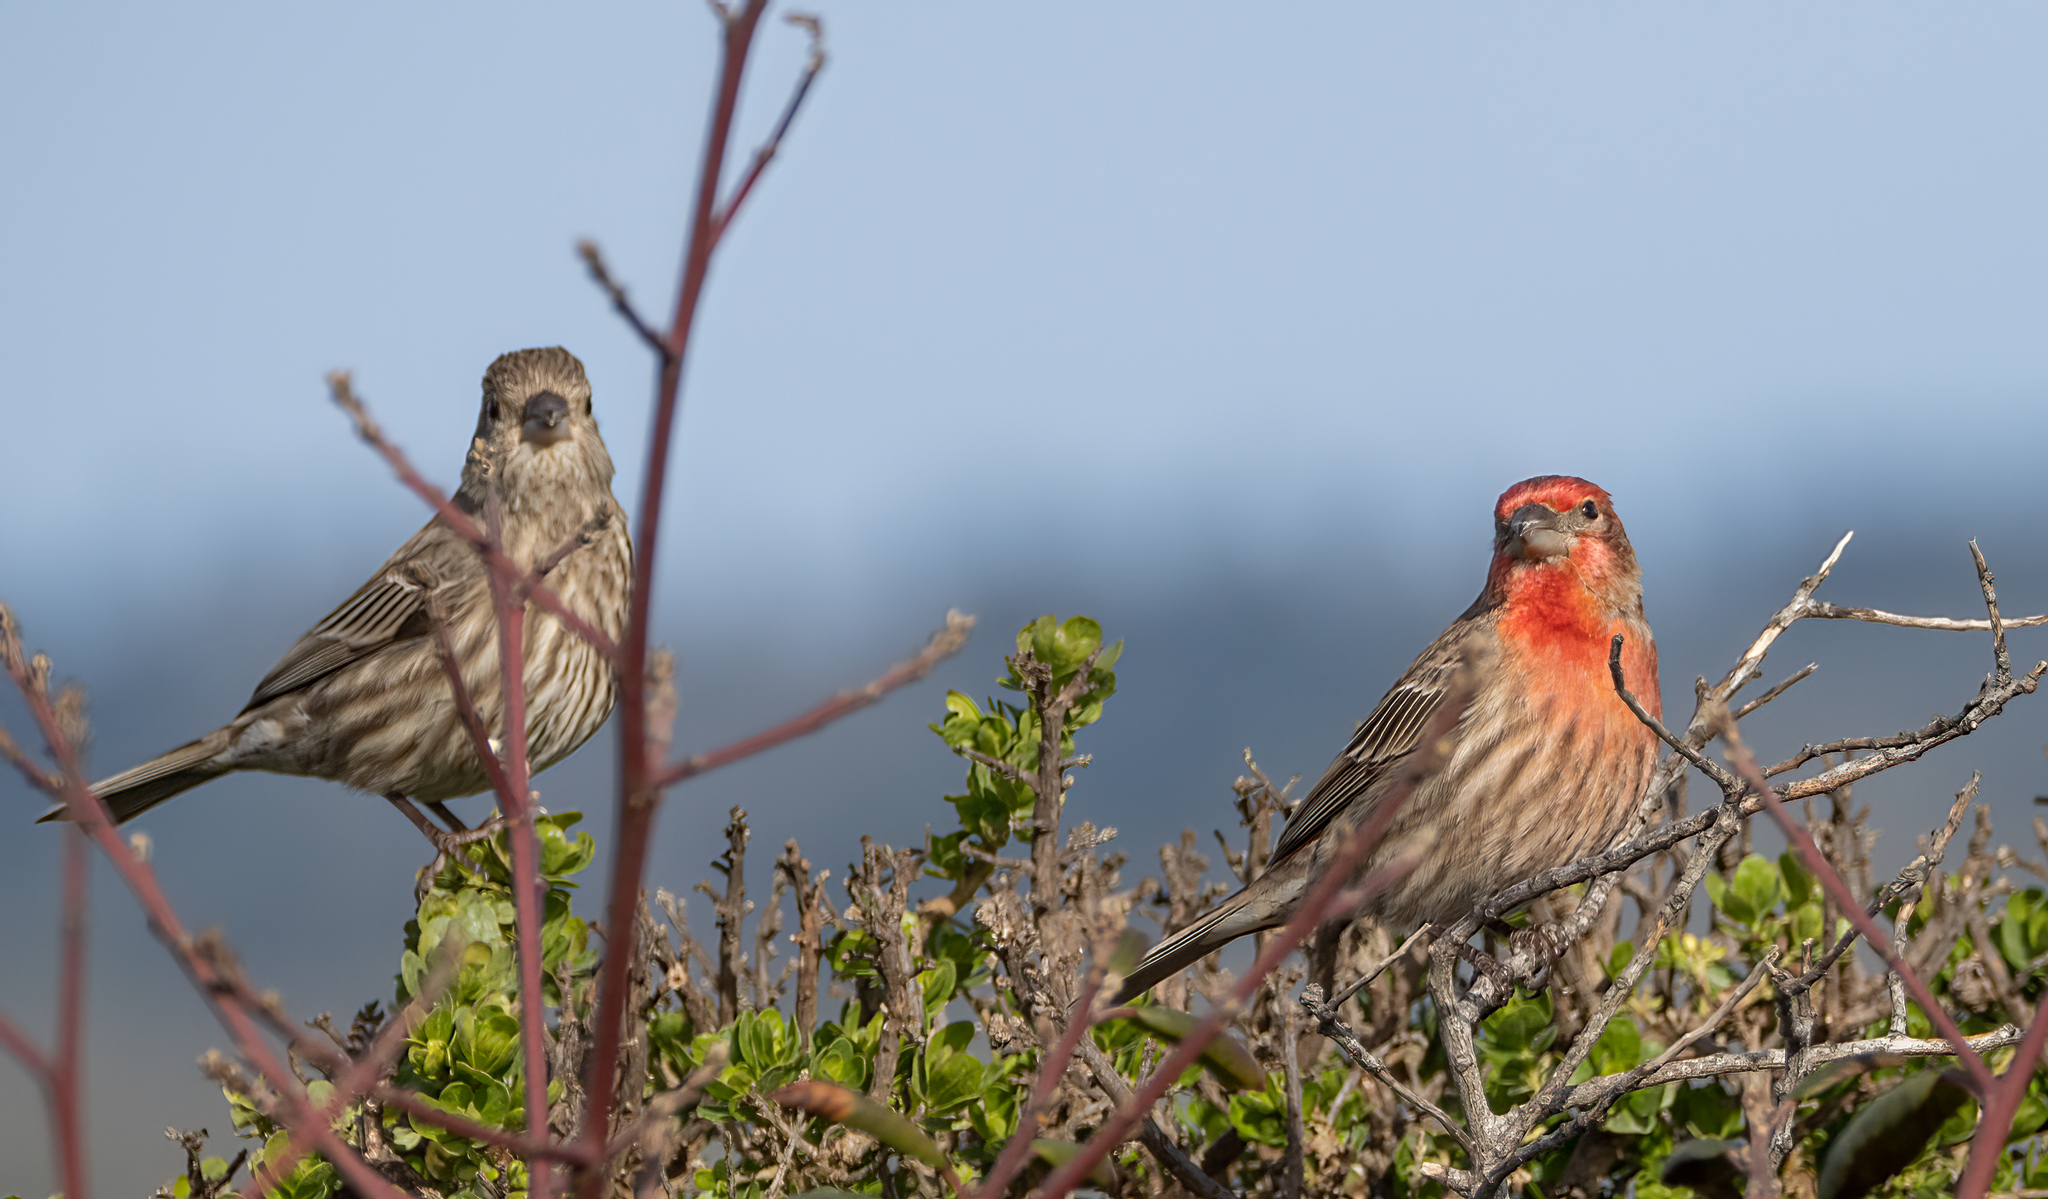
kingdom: Animalia
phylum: Chordata
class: Aves
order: Passeriformes
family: Fringillidae
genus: Haemorhous
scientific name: Haemorhous mexicanus
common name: House finch
